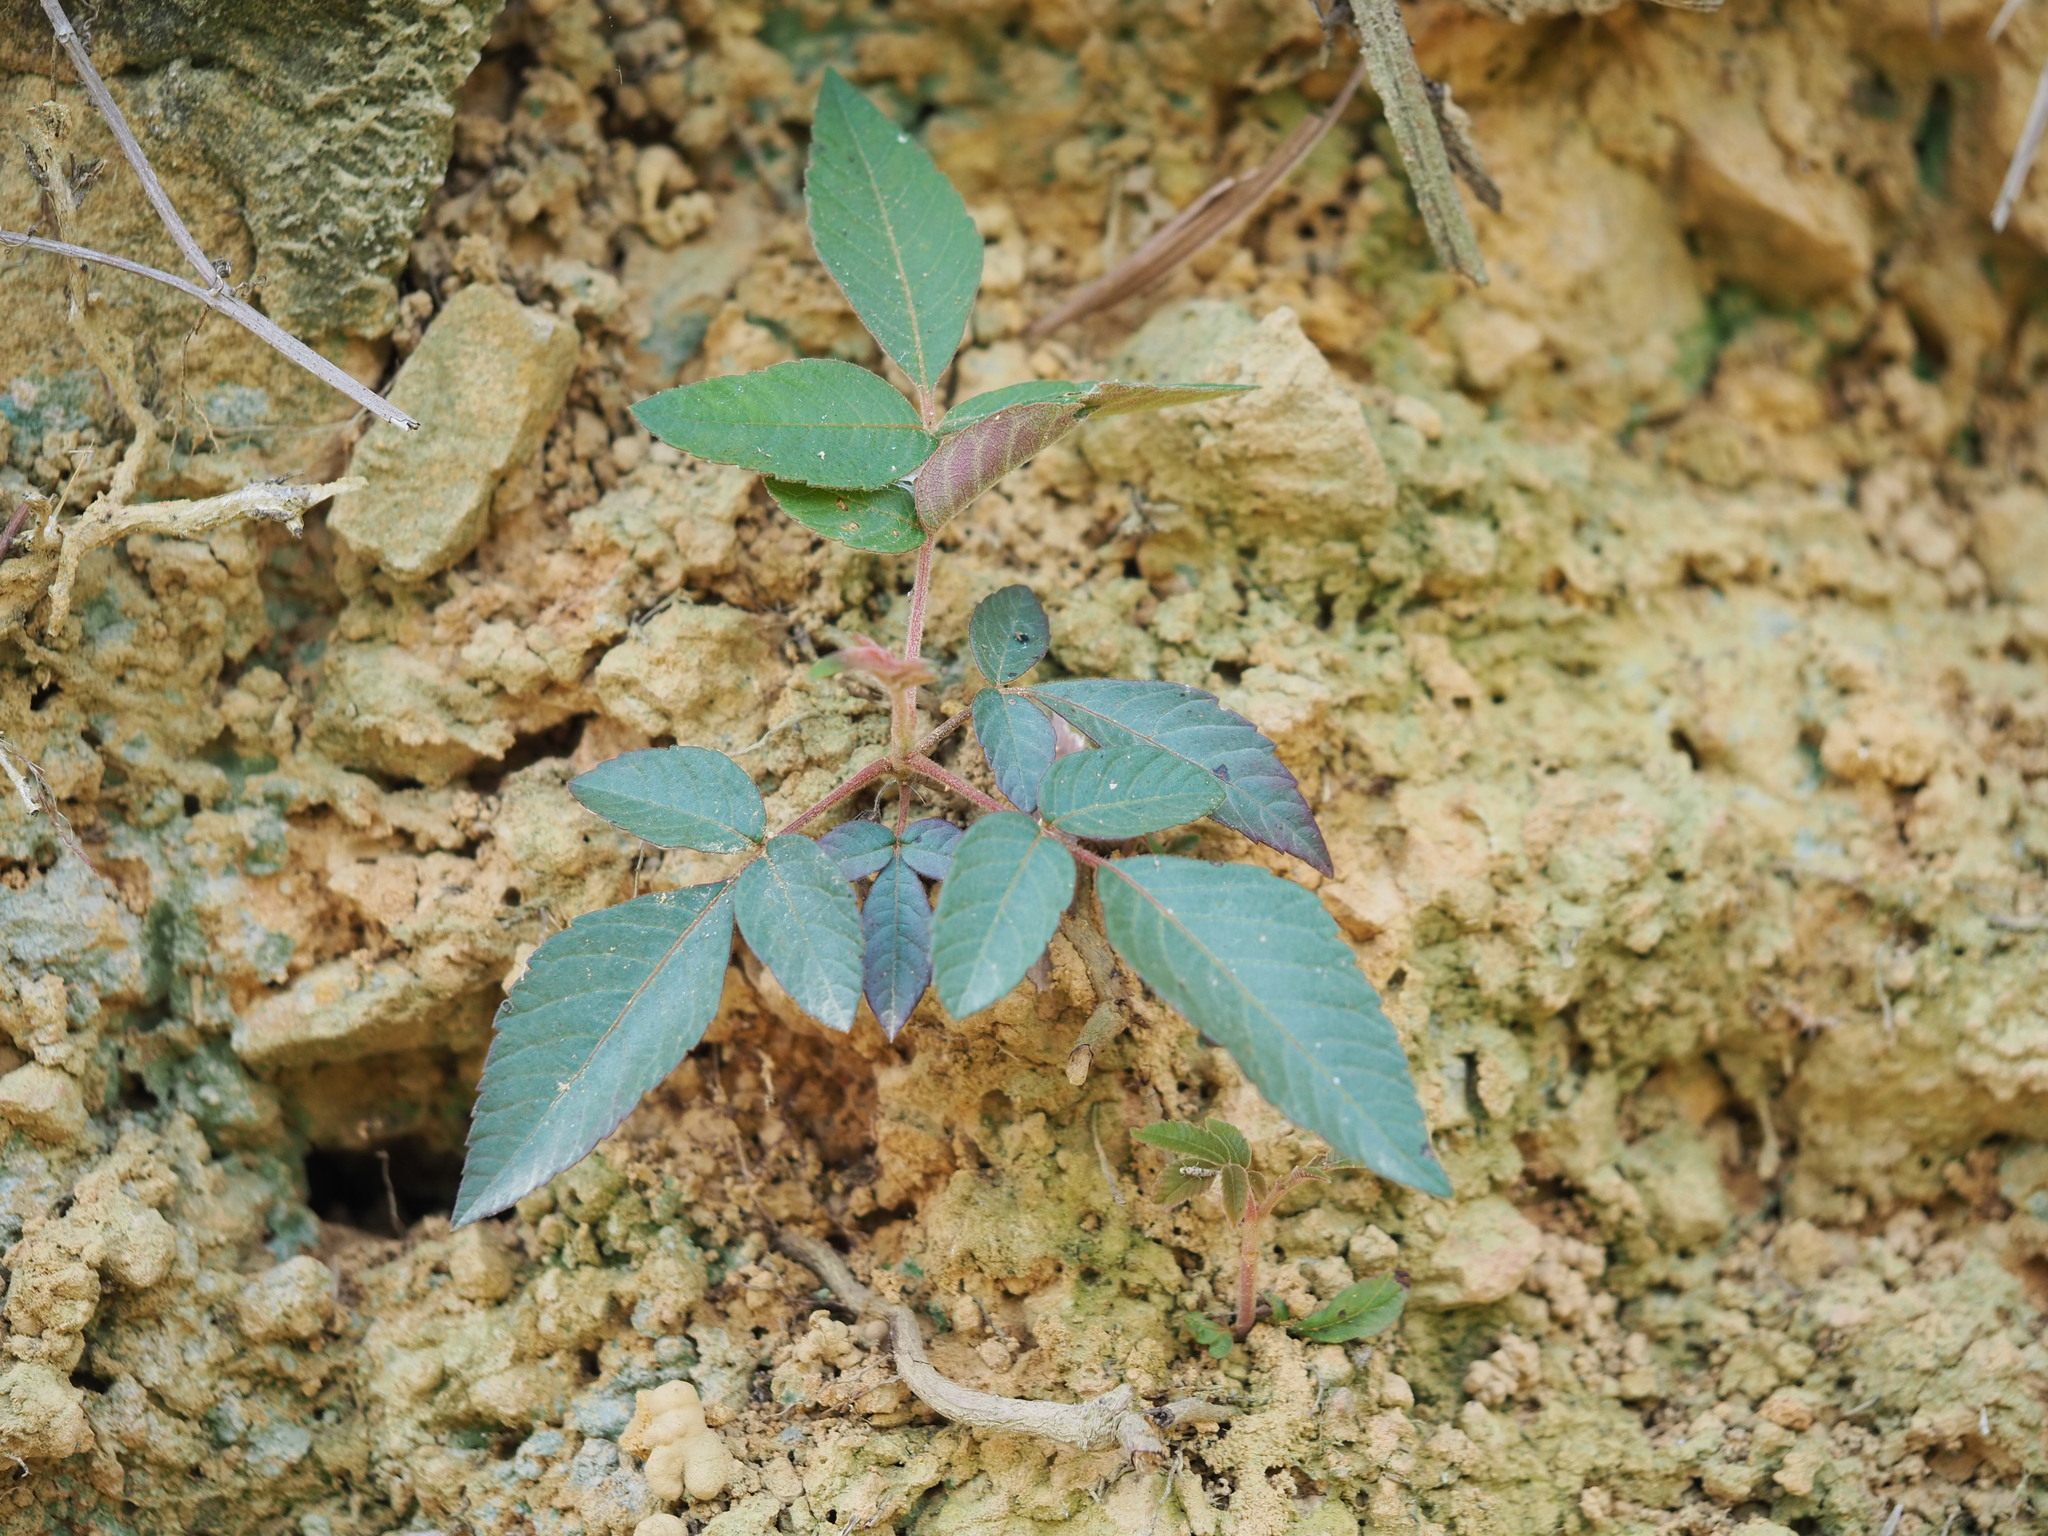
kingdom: Plantae
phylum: Tracheophyta
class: Magnoliopsida
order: Sapindales
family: Anacardiaceae
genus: Rhus
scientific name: Rhus chinensis
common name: Chinese gall
